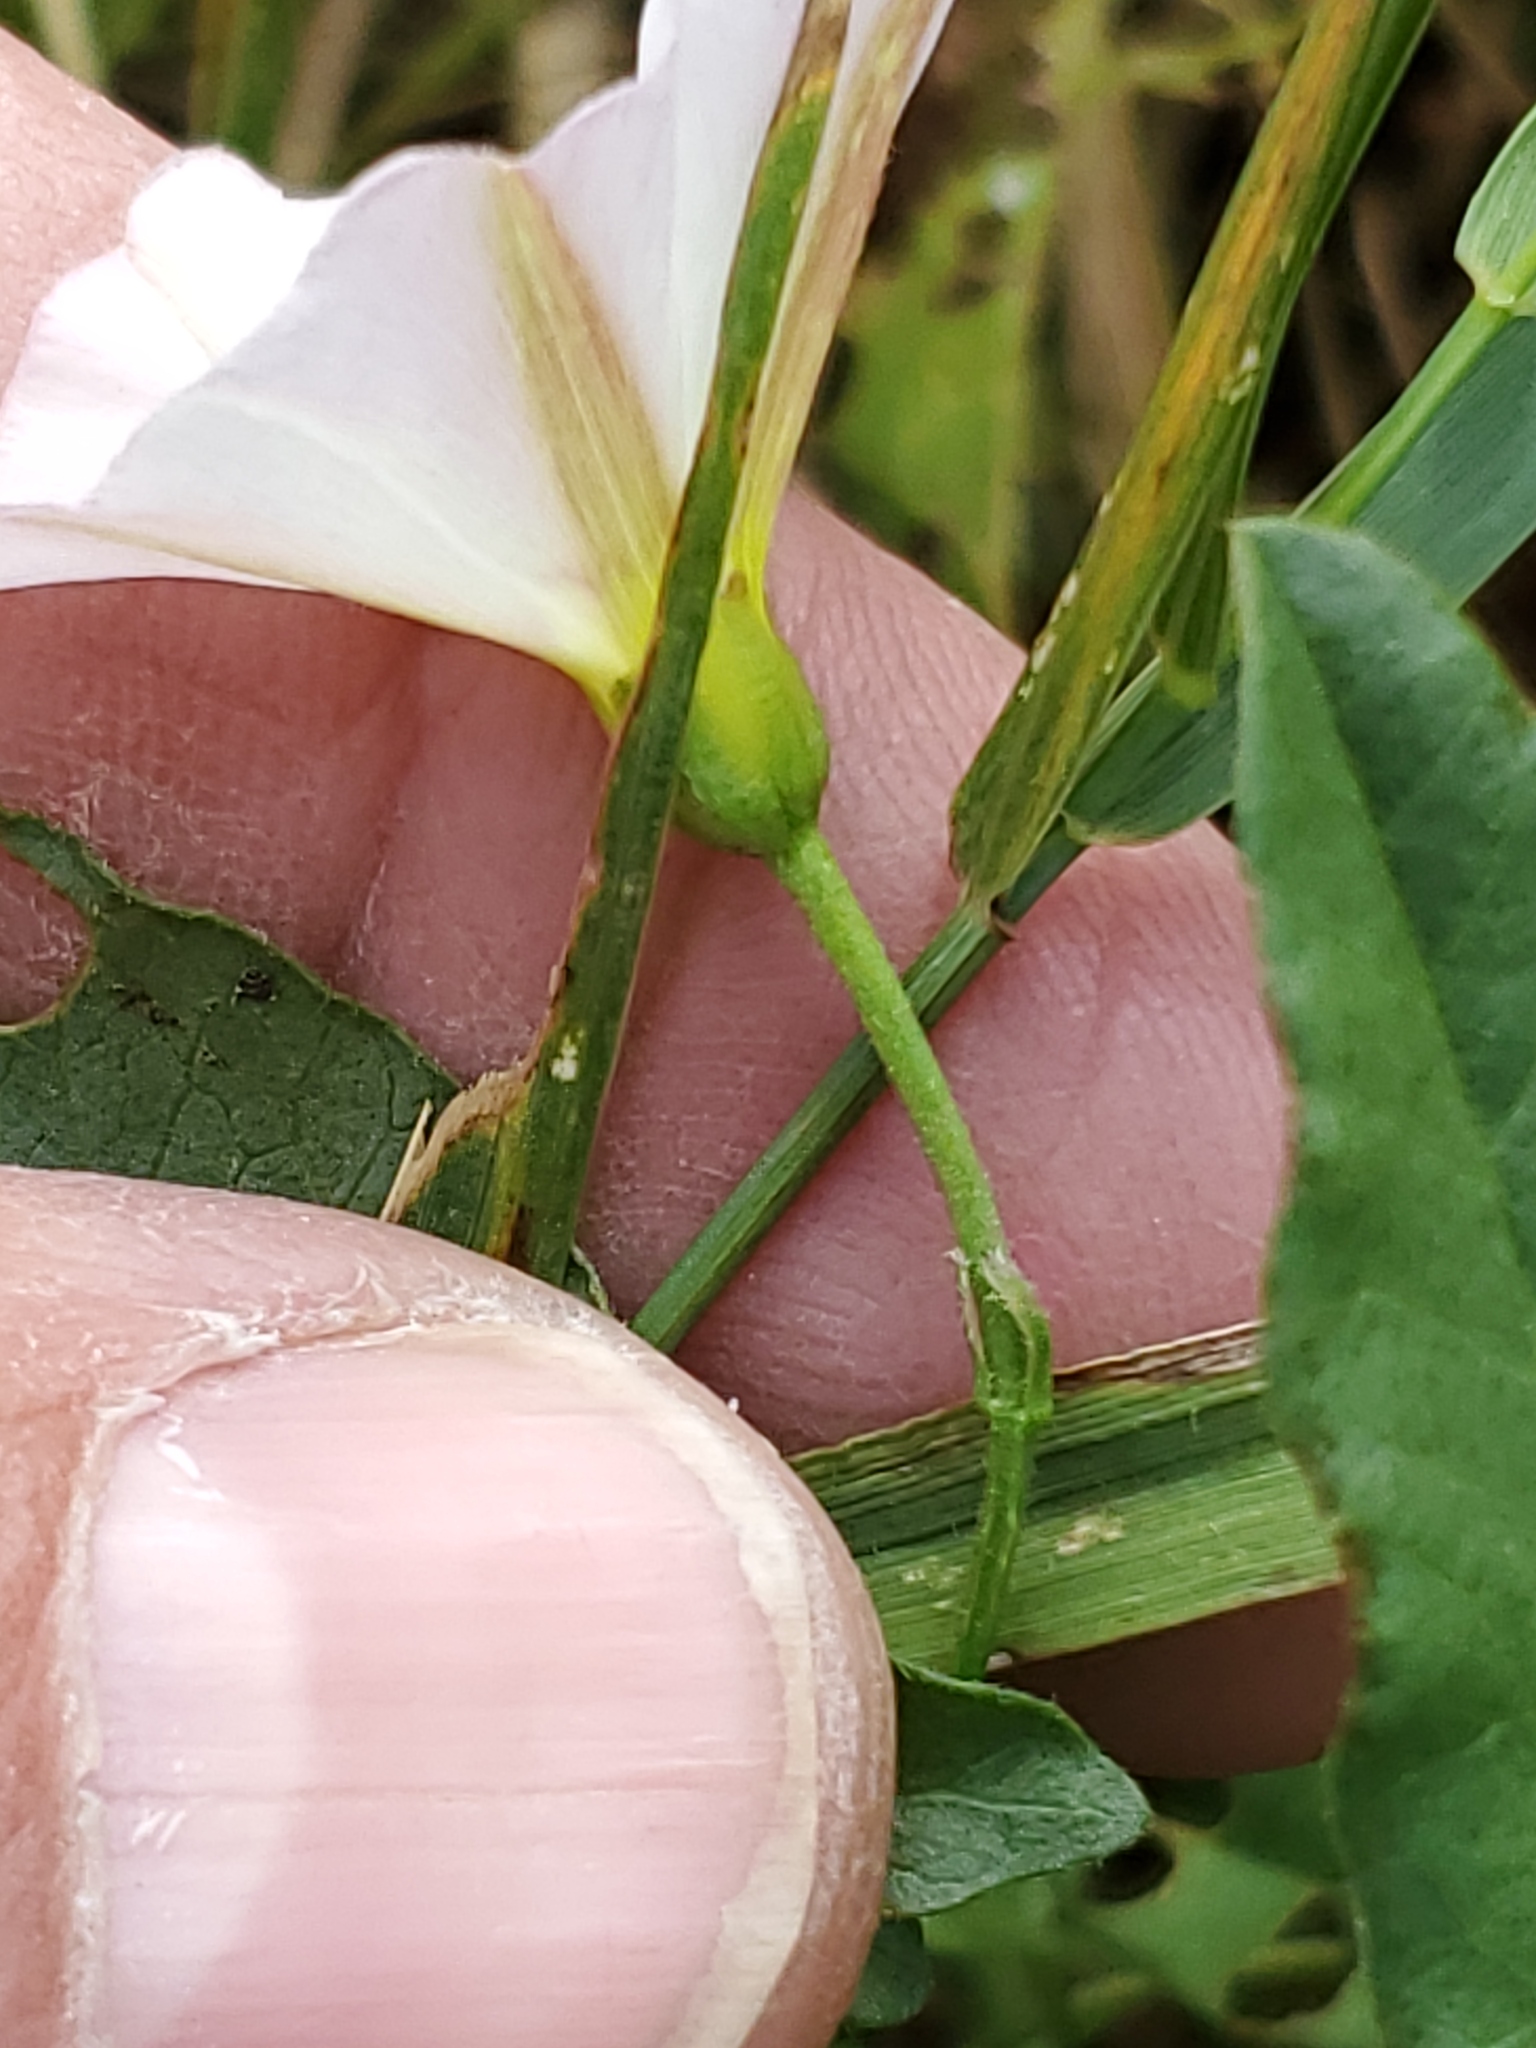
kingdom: Plantae
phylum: Tracheophyta
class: Magnoliopsida
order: Solanales
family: Convolvulaceae
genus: Convolvulus
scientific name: Convolvulus arvensis
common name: Field bindweed
